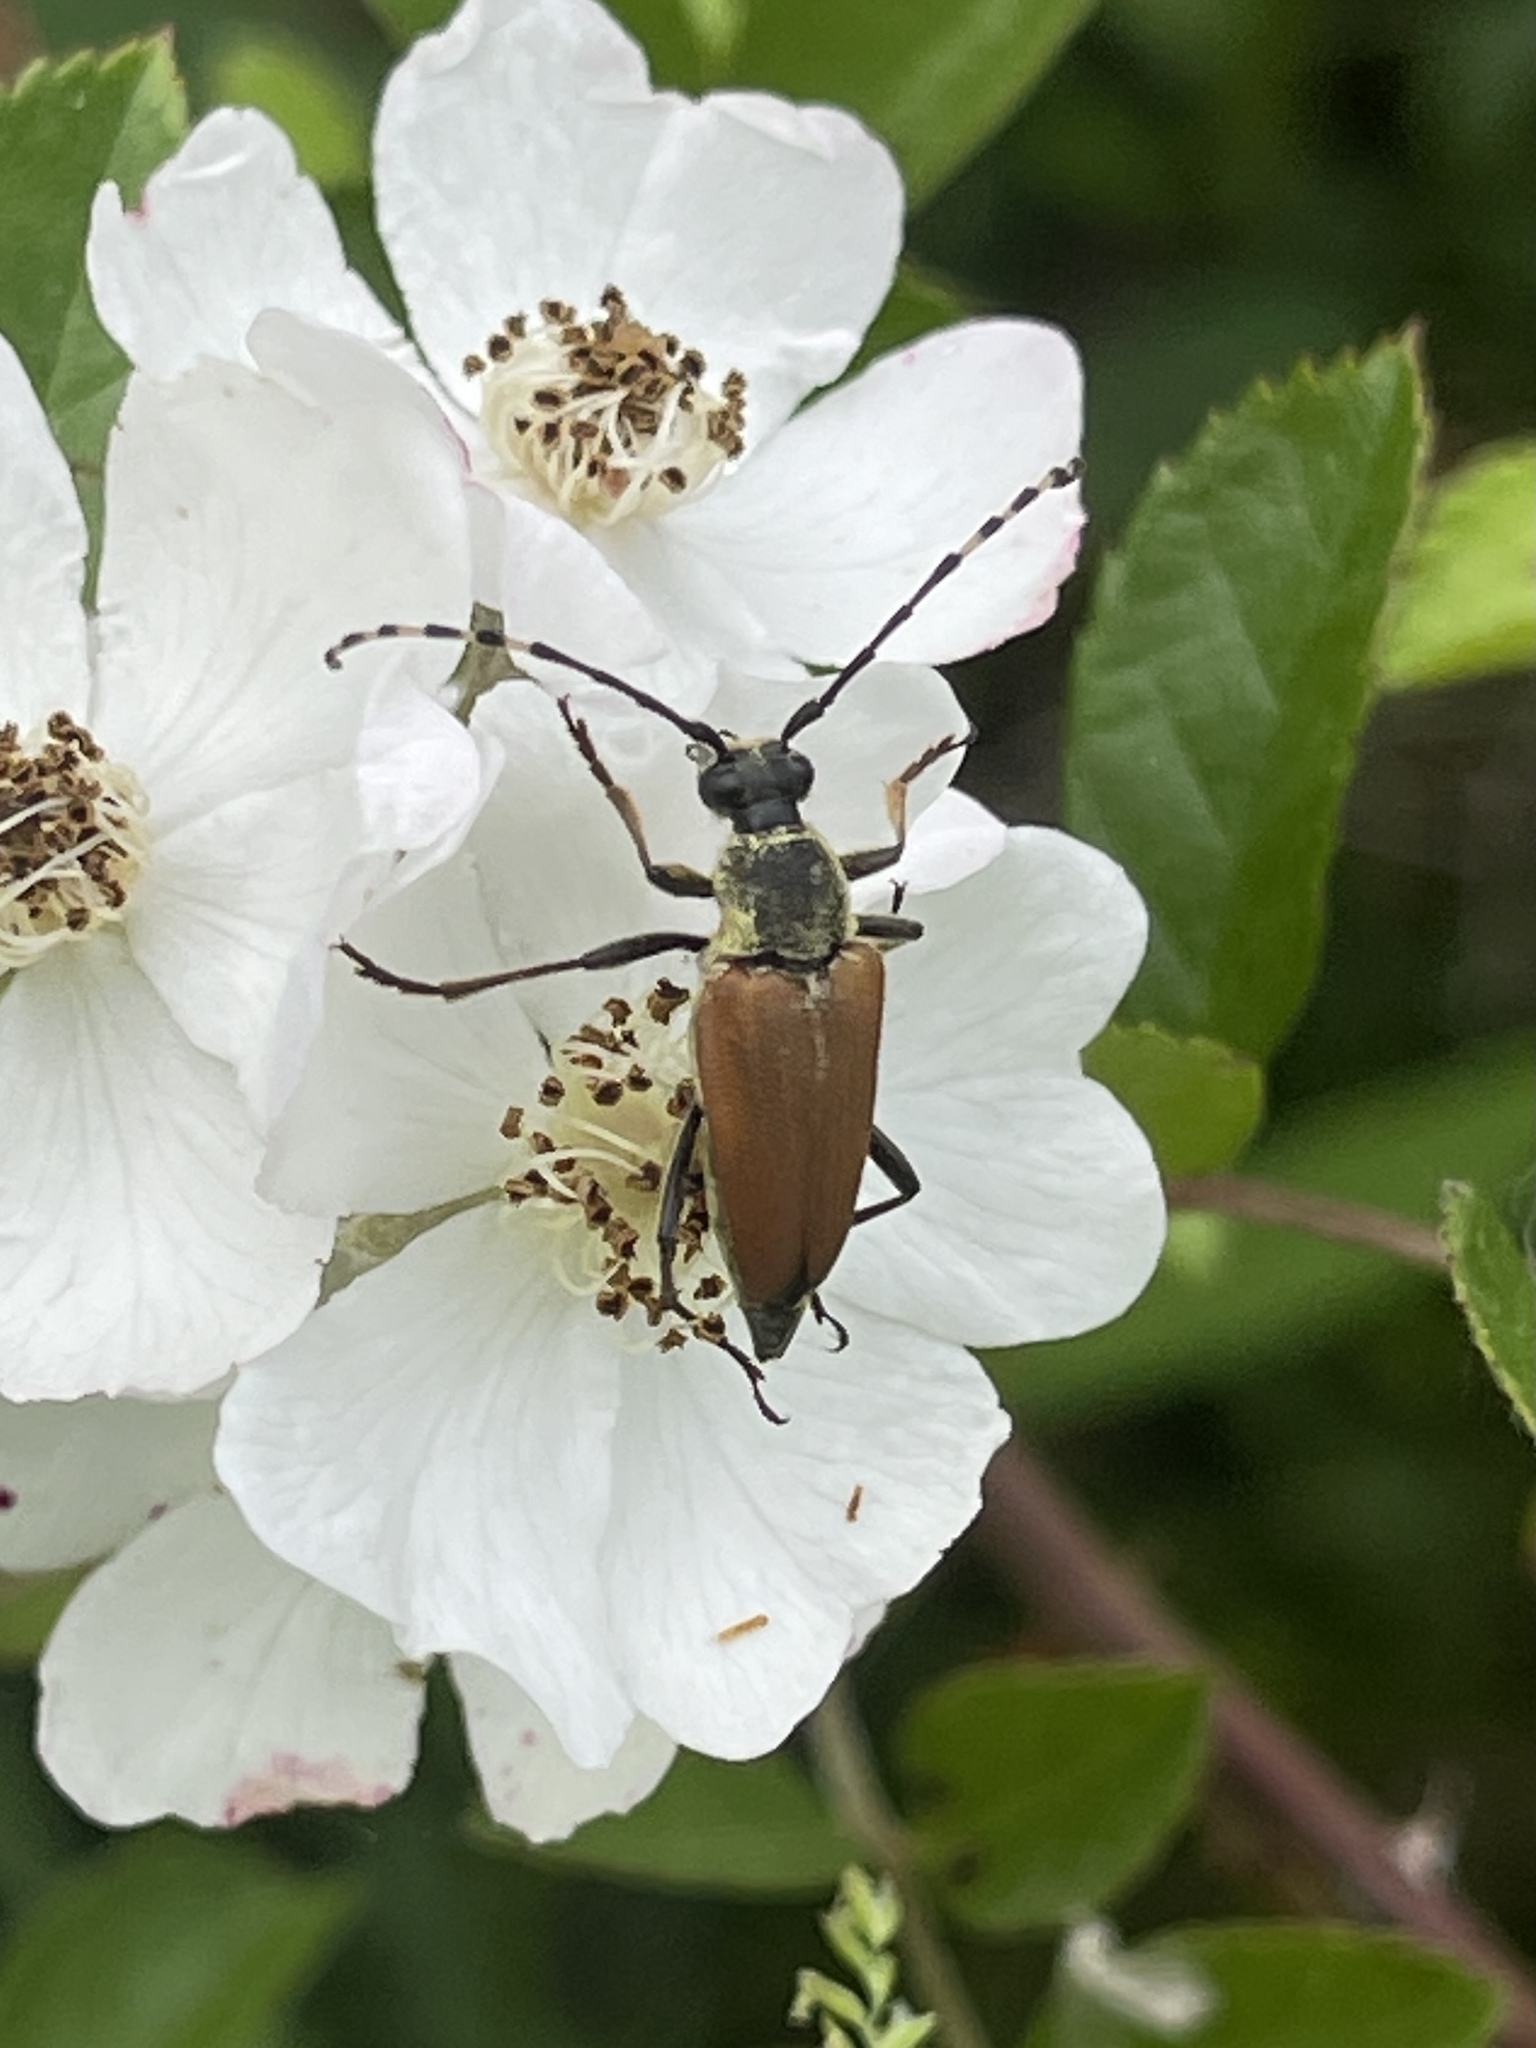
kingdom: Animalia
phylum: Arthropoda
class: Insecta
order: Coleoptera
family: Cerambycidae
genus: Brachyleptura
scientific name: Brachyleptura rubrica
